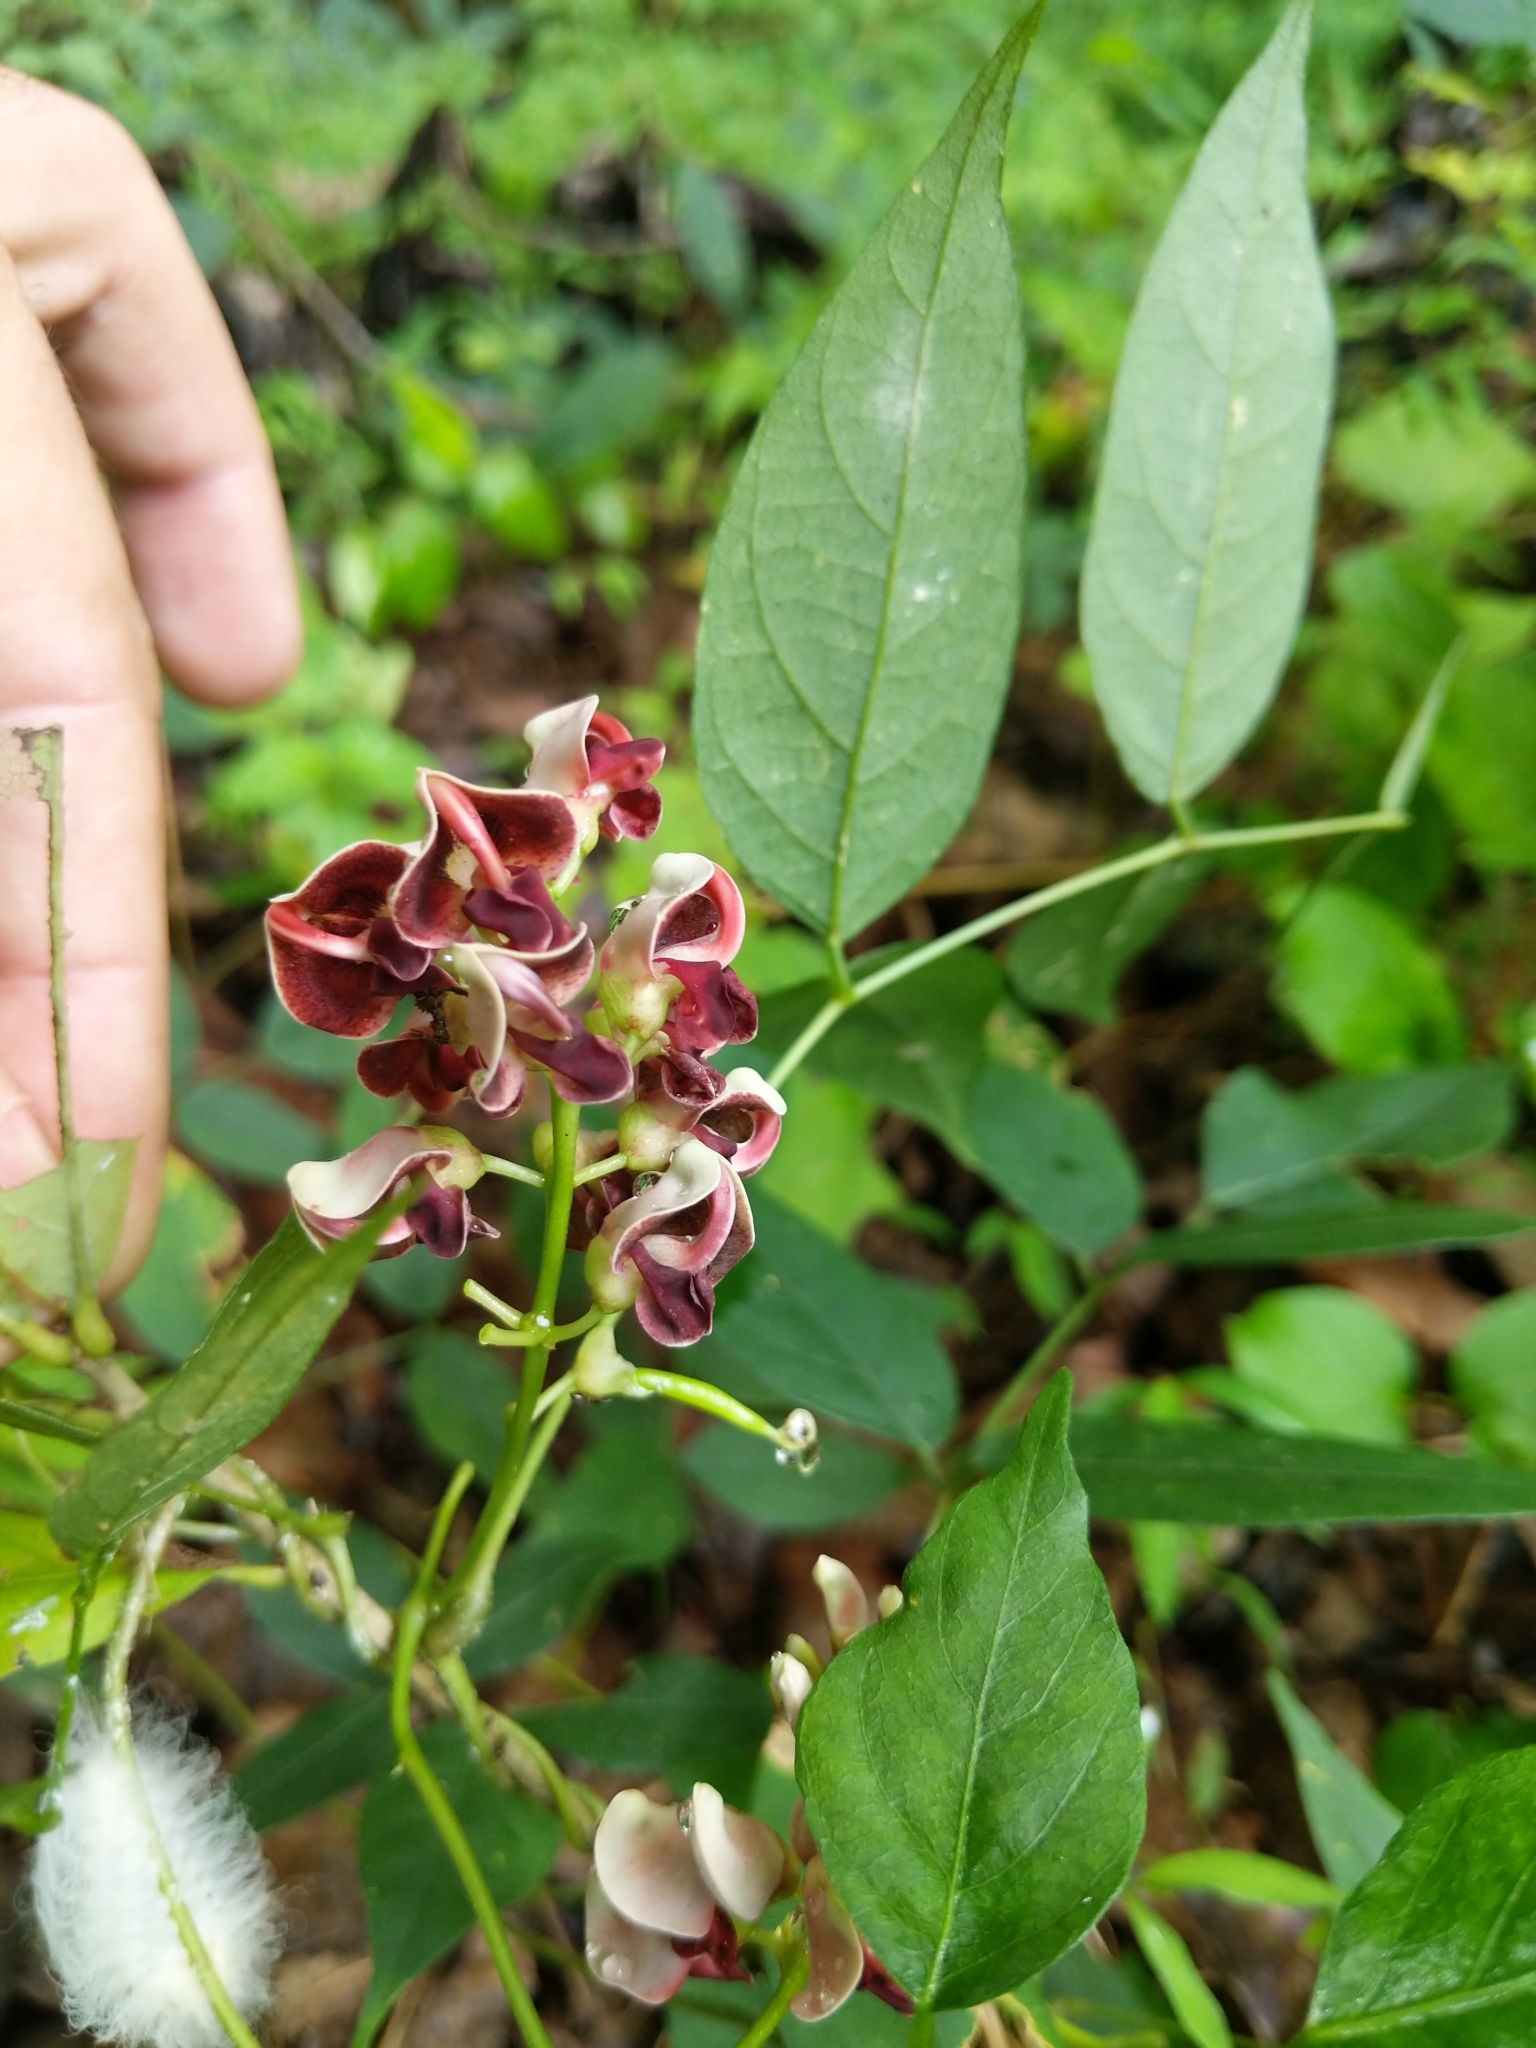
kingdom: Plantae
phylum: Tracheophyta
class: Magnoliopsida
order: Fabales
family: Fabaceae
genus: Apios
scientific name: Apios americana
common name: American potato-bean
